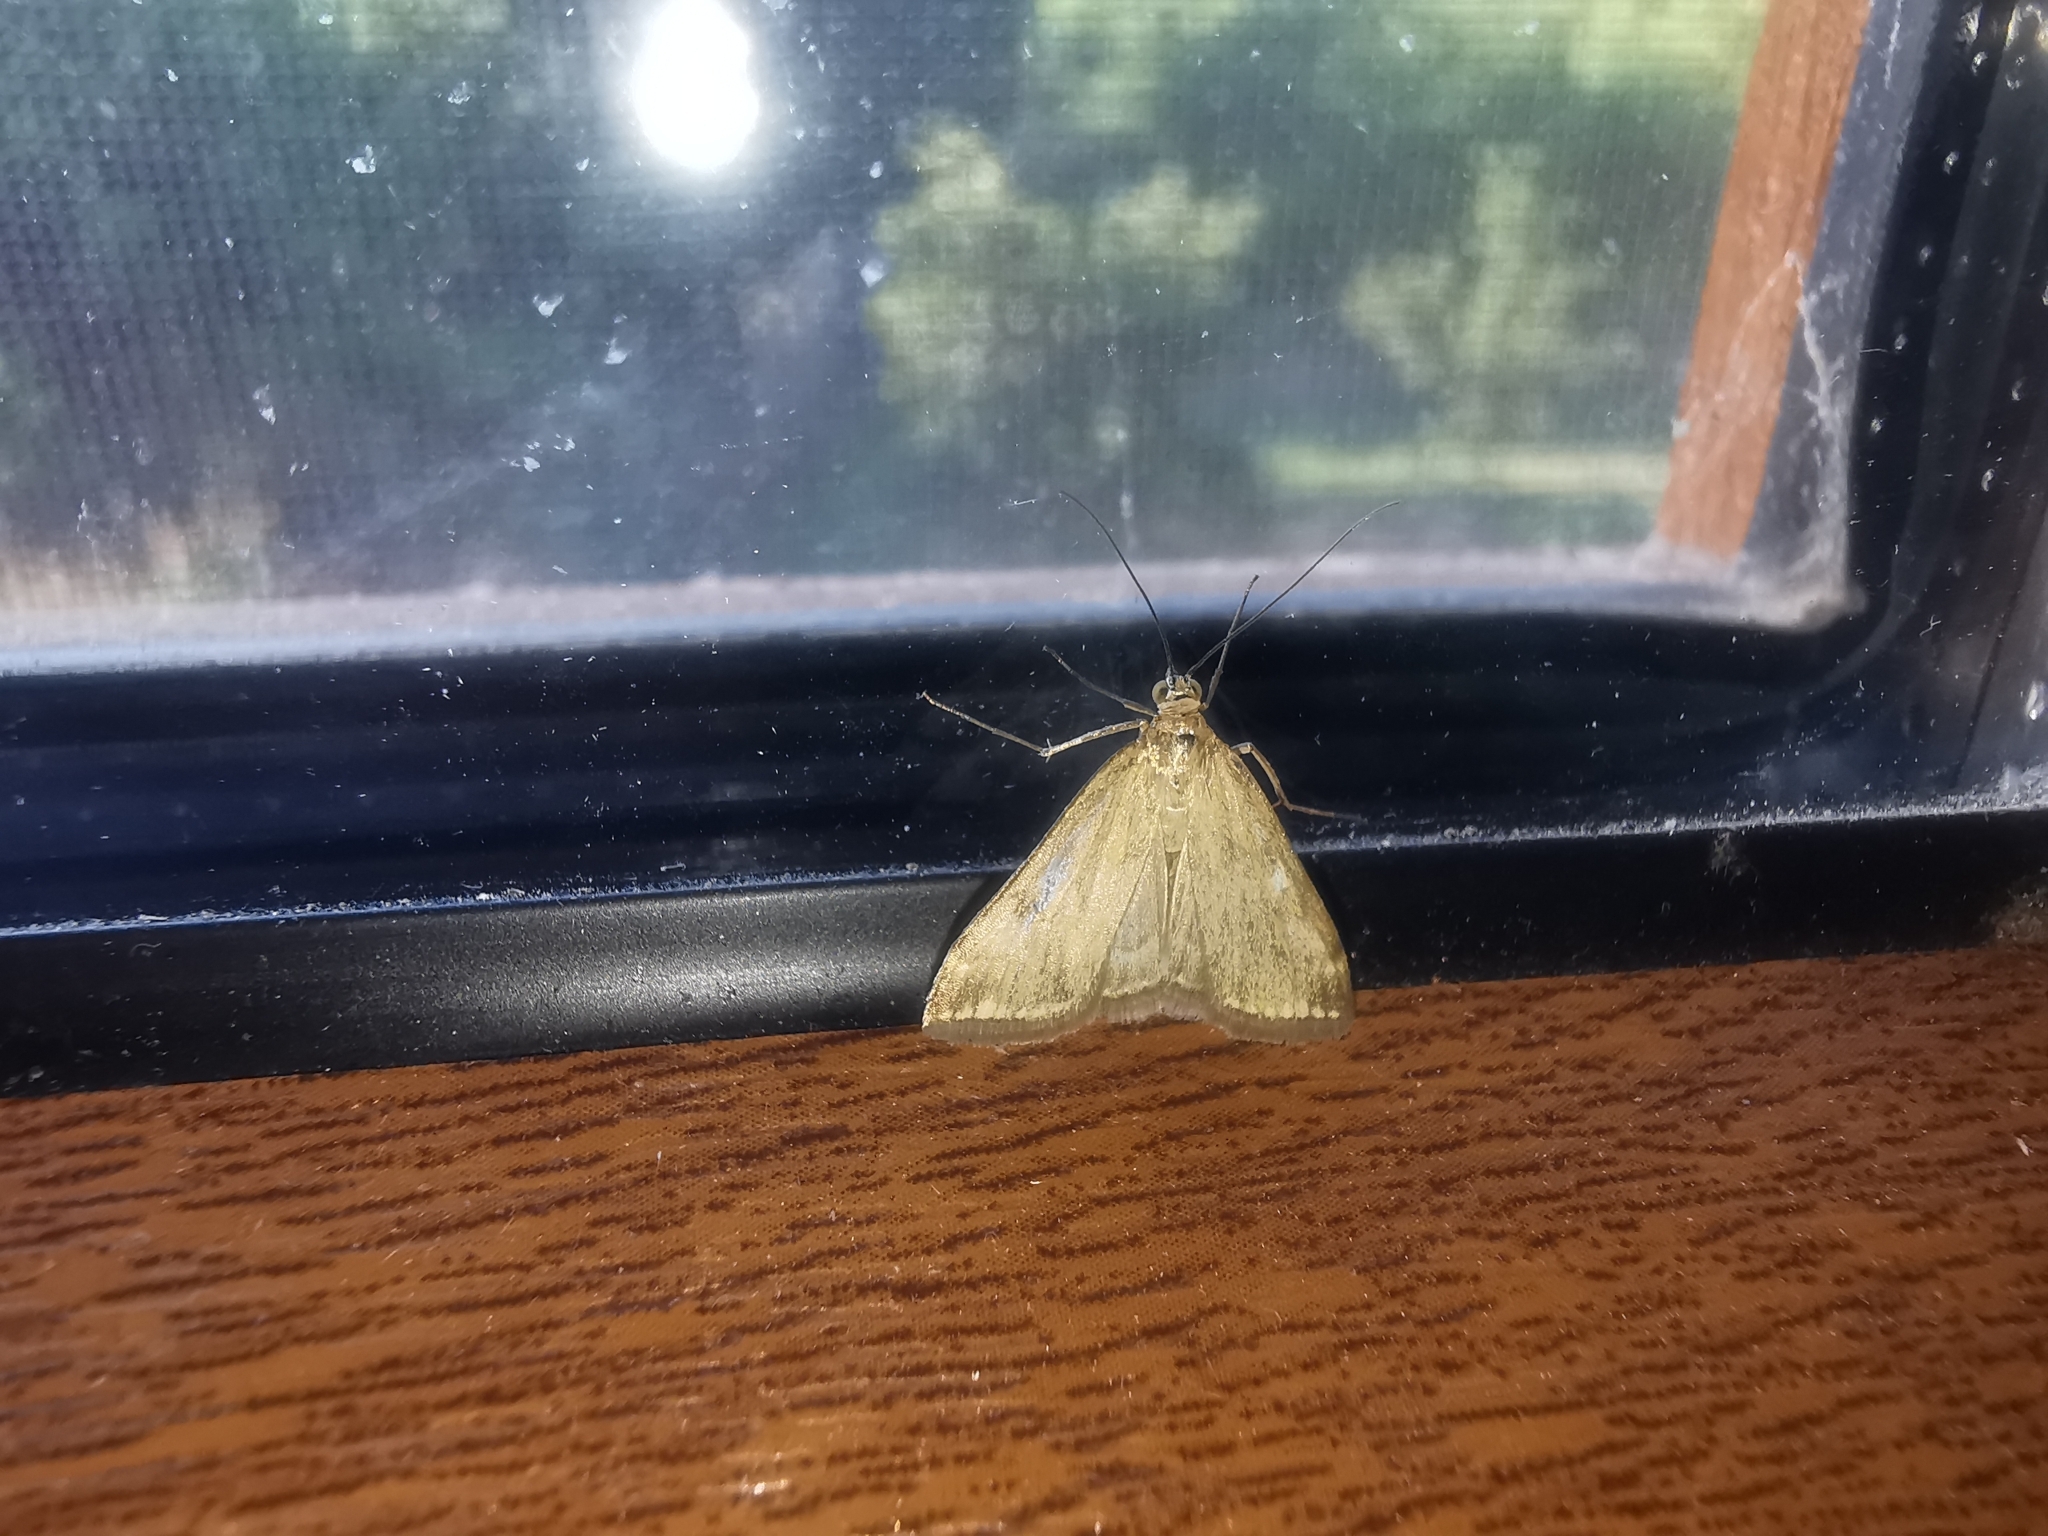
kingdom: Animalia
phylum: Arthropoda
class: Insecta
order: Lepidoptera
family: Crambidae
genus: Loxostege
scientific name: Loxostege sticticalis
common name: Crambid moth
